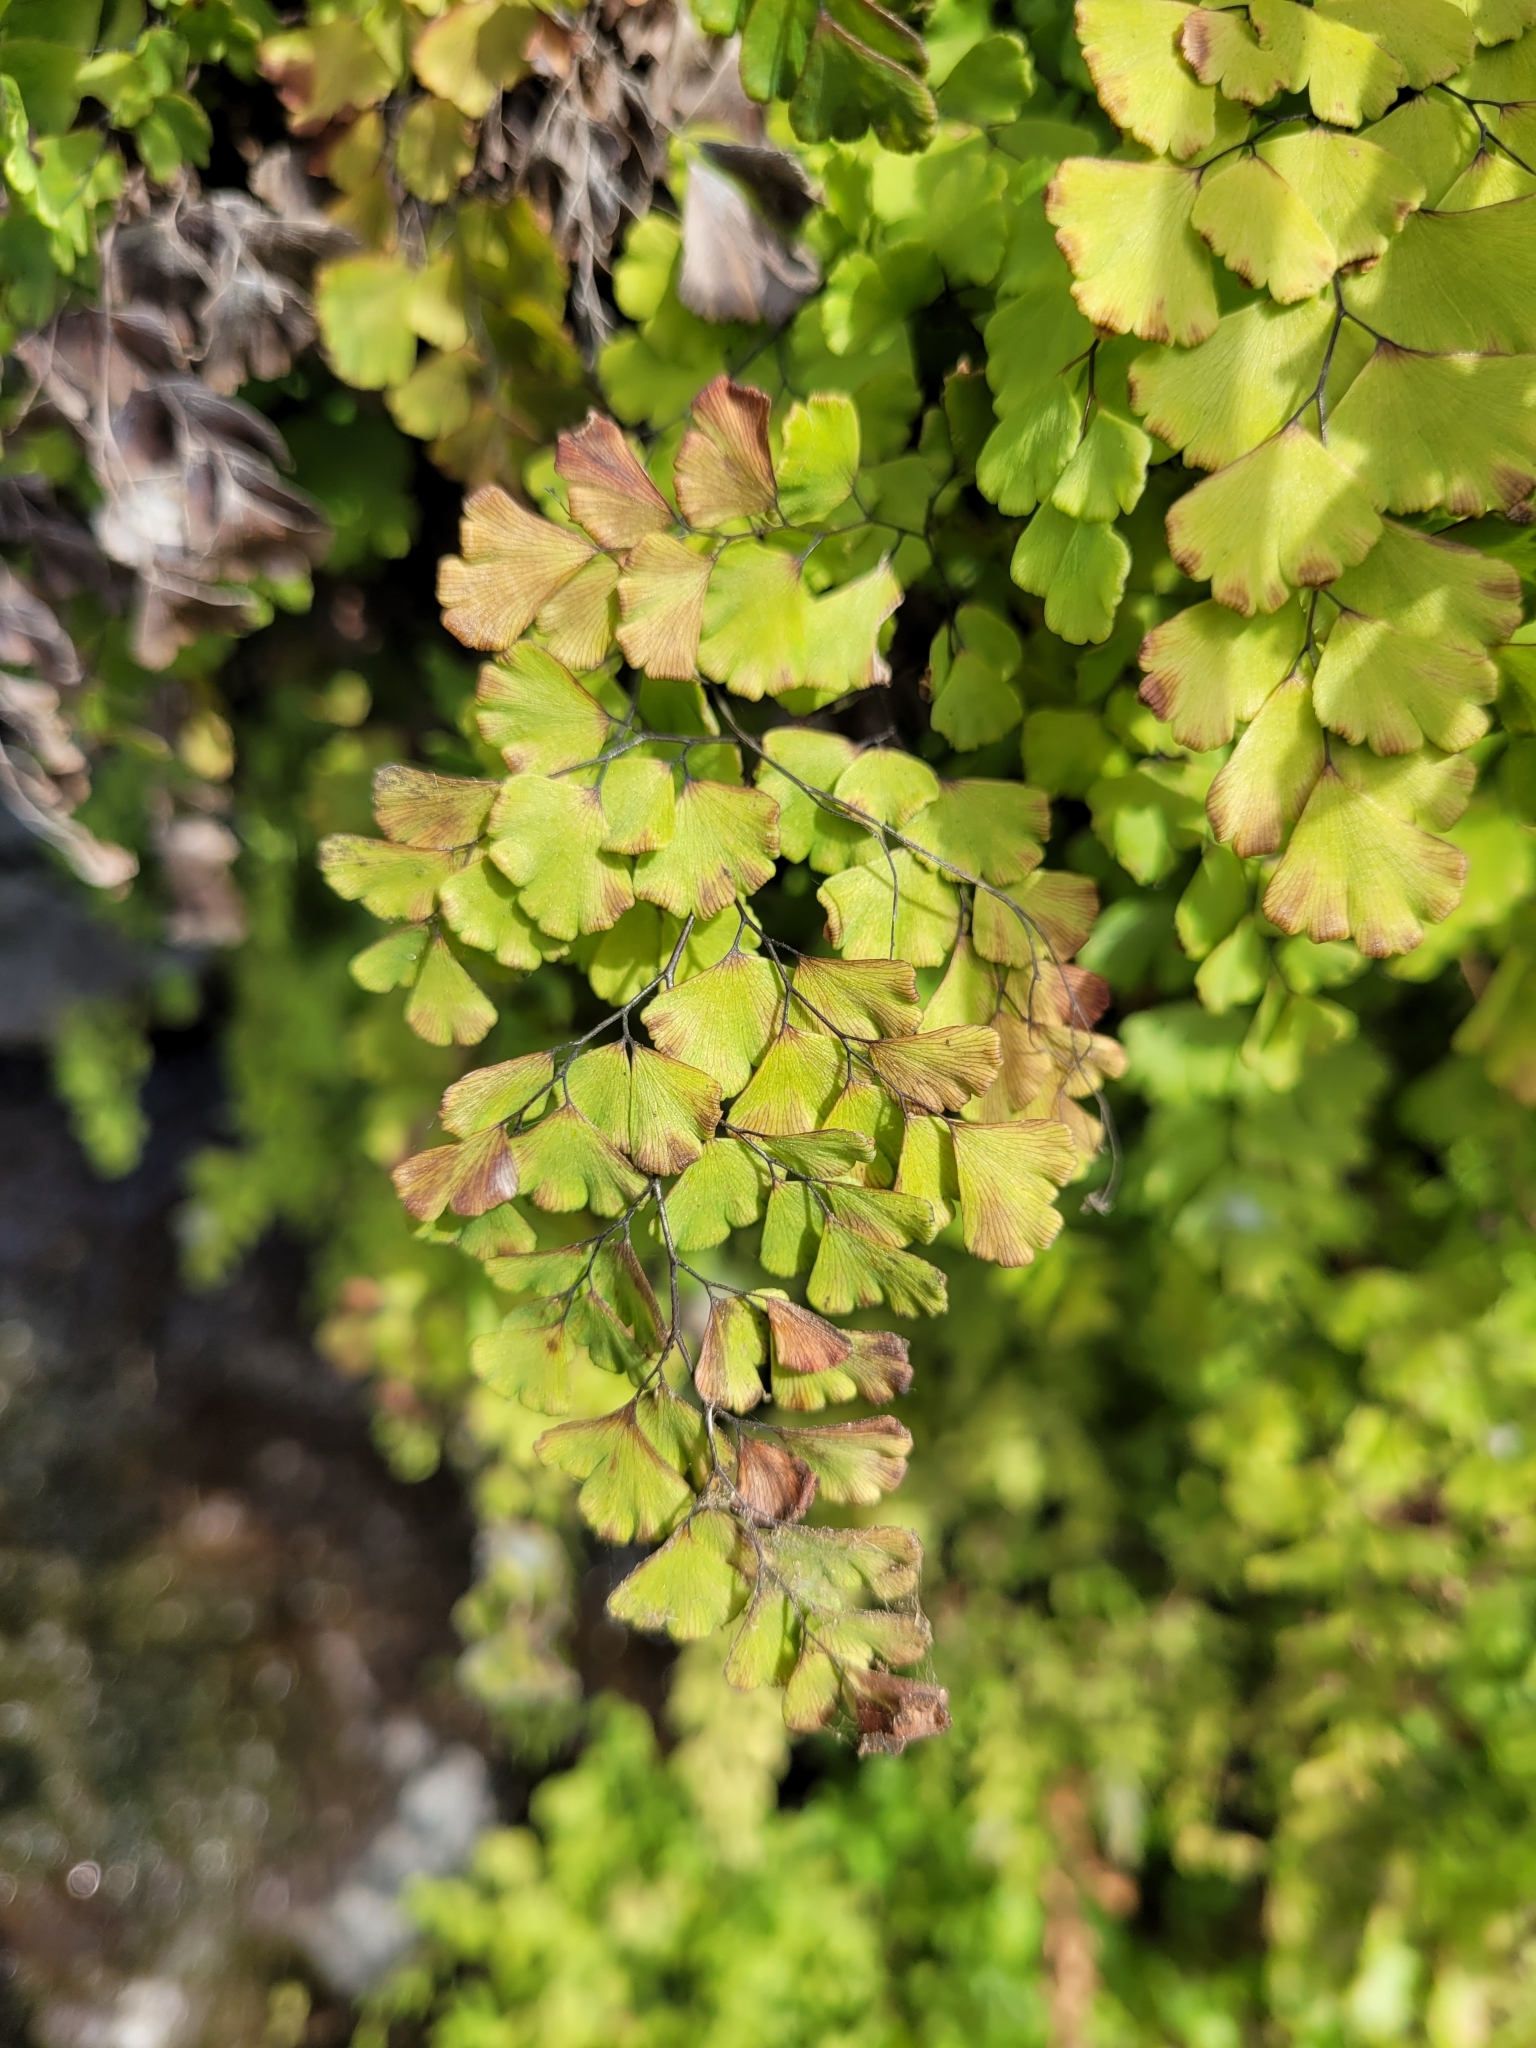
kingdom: Plantae
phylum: Tracheophyta
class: Polypodiopsida
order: Polypodiales
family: Pteridaceae
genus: Adiantum
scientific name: Adiantum capillus-veneris
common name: Maidenhair fern
